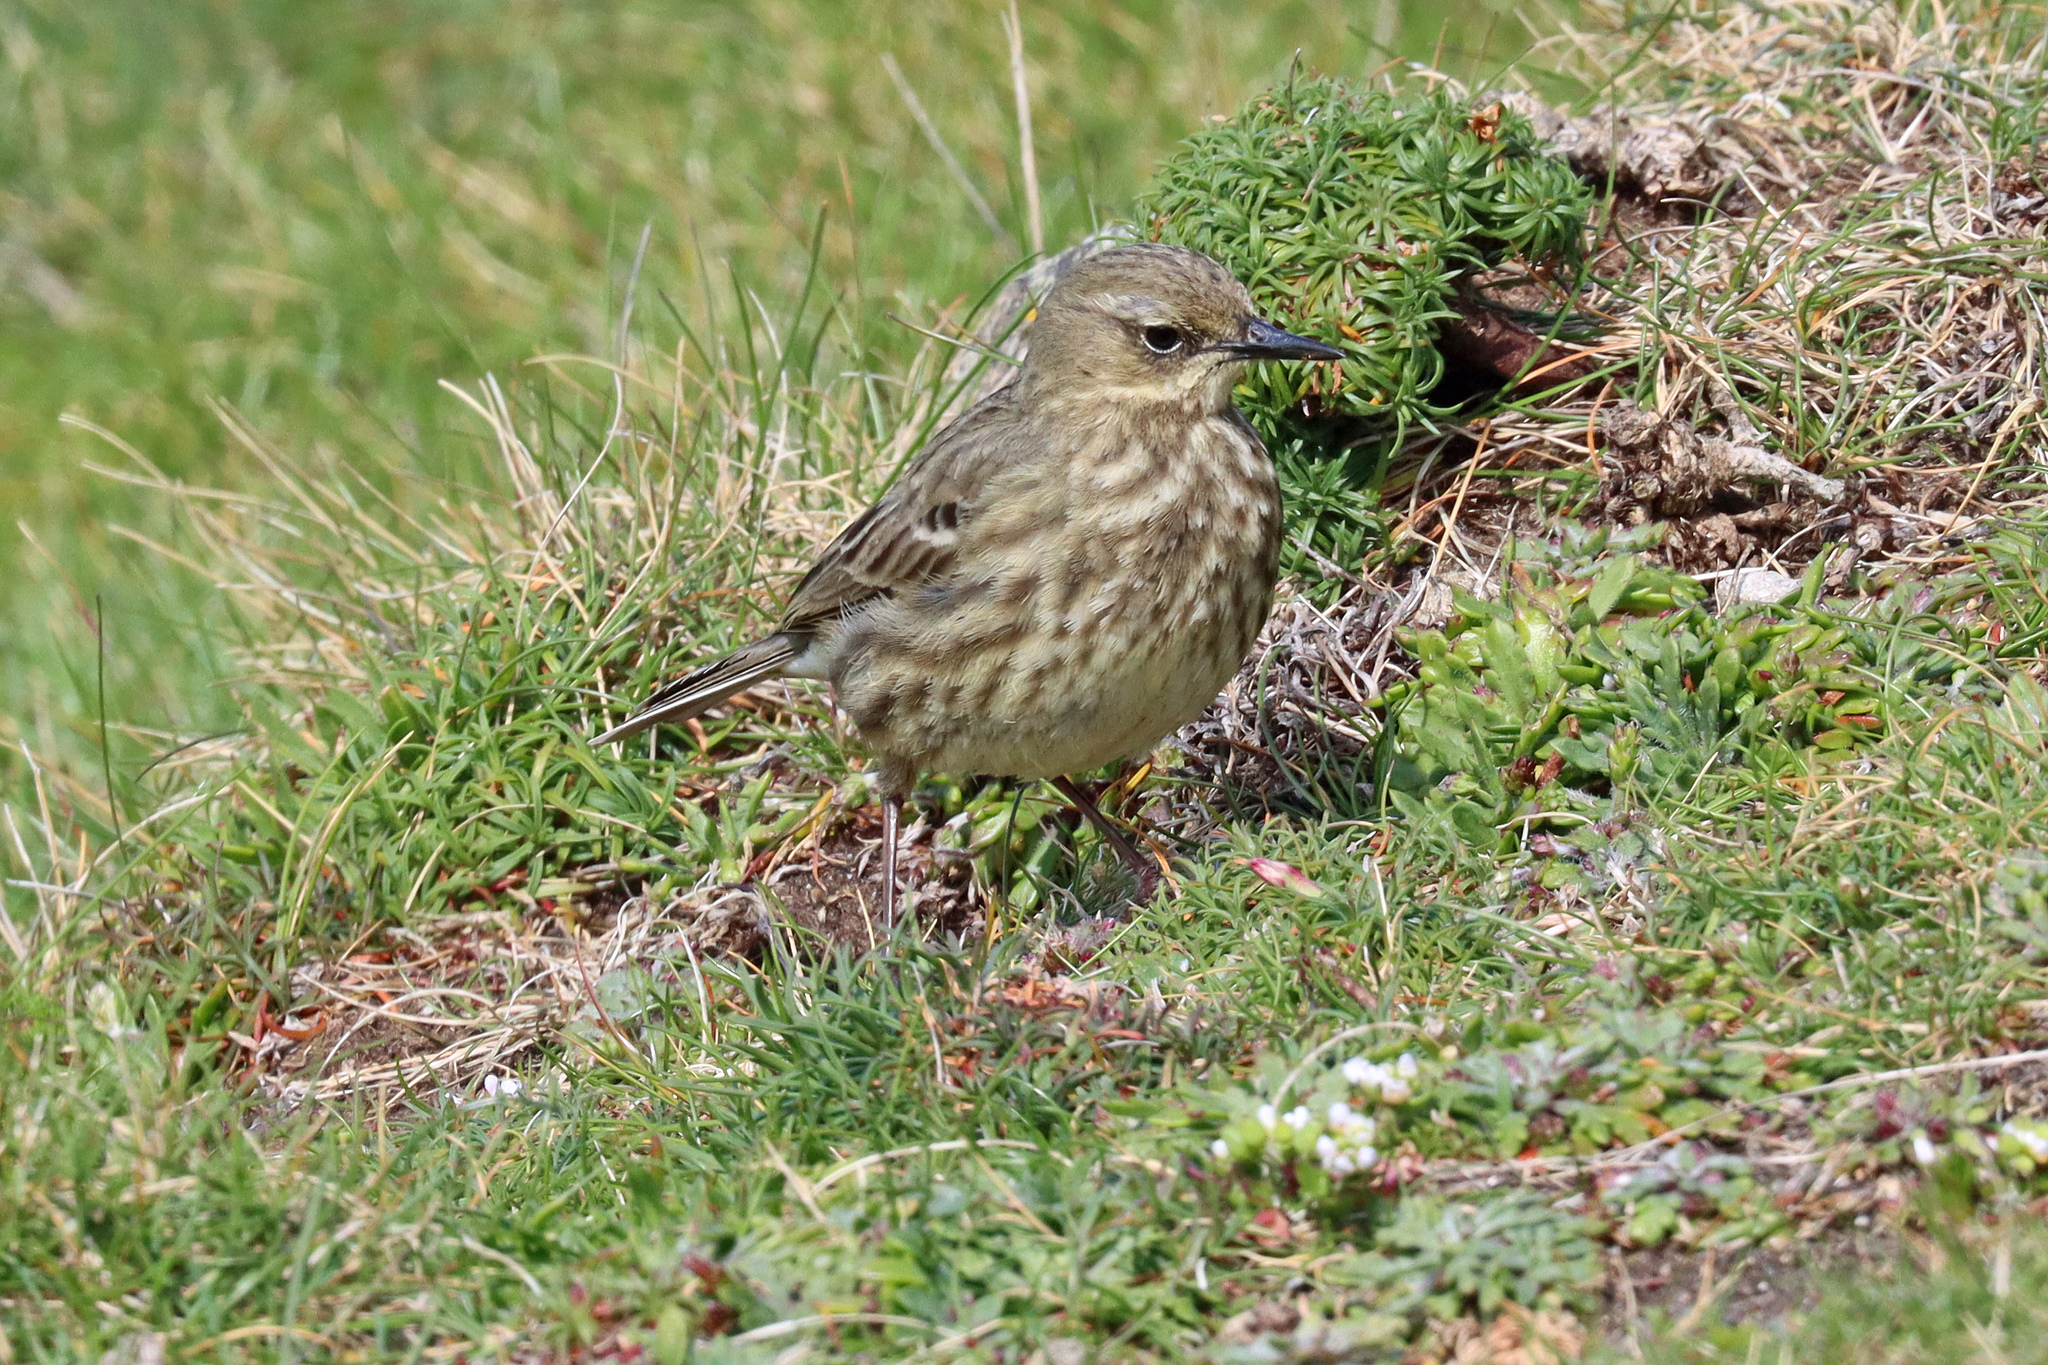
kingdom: Animalia
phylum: Chordata
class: Aves
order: Passeriformes
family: Motacillidae
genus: Anthus
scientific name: Anthus petrosus
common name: Eurasian rock pipit
